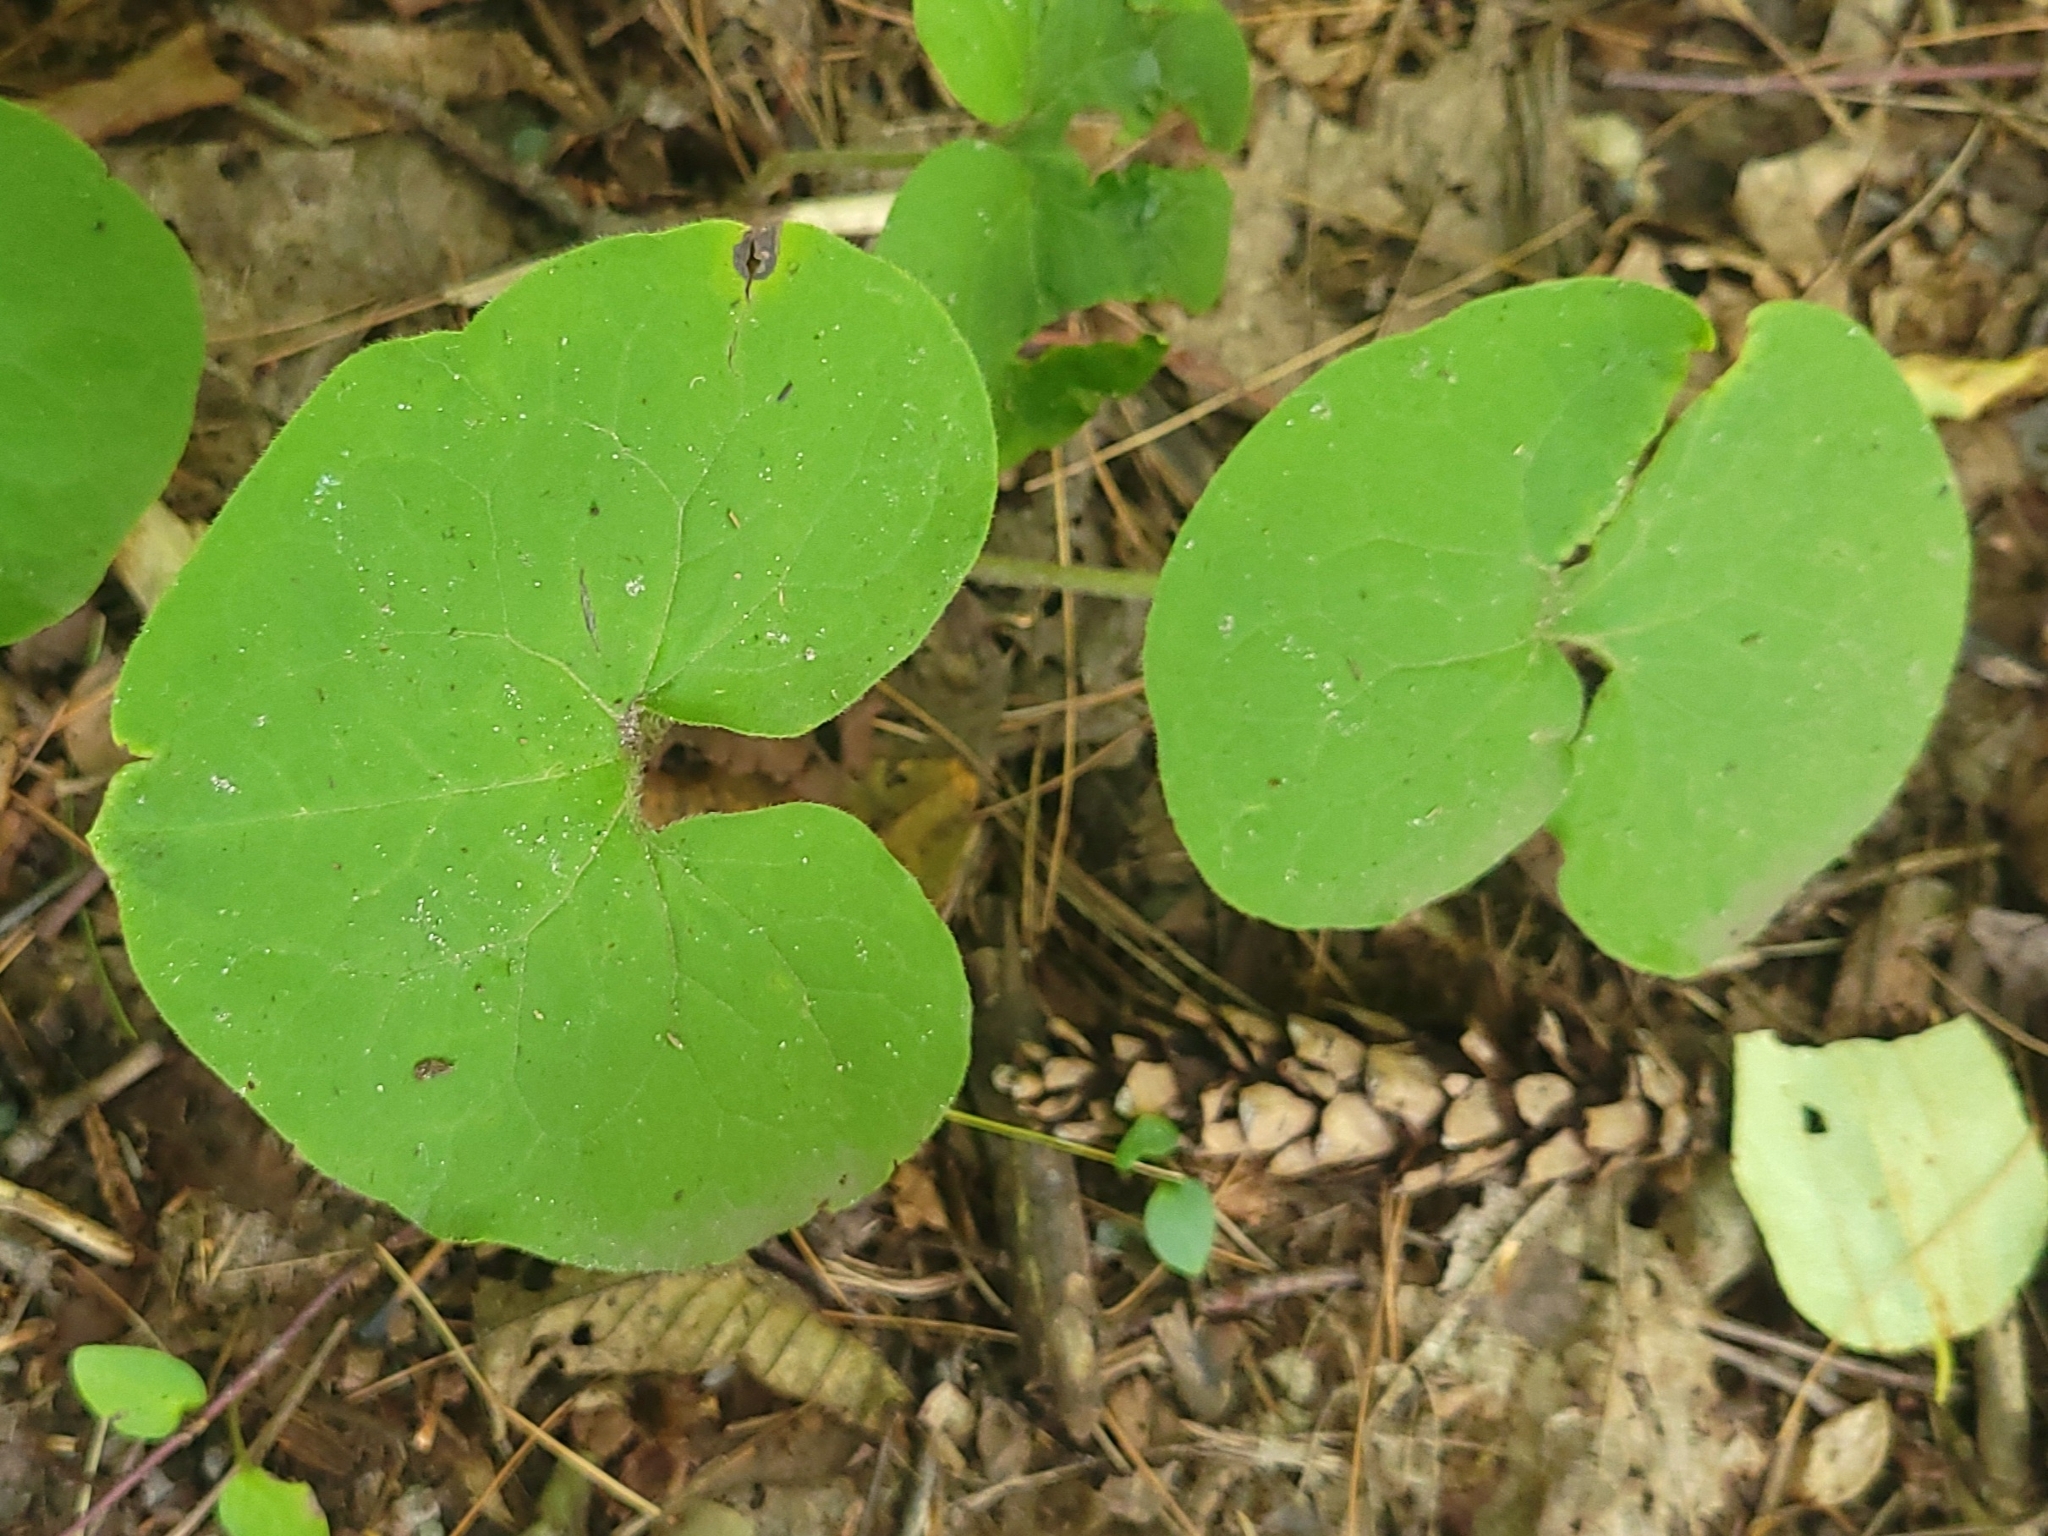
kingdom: Plantae
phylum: Tracheophyta
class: Magnoliopsida
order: Piperales
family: Aristolochiaceae
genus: Asarum
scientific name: Asarum canadense
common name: Wild ginger
